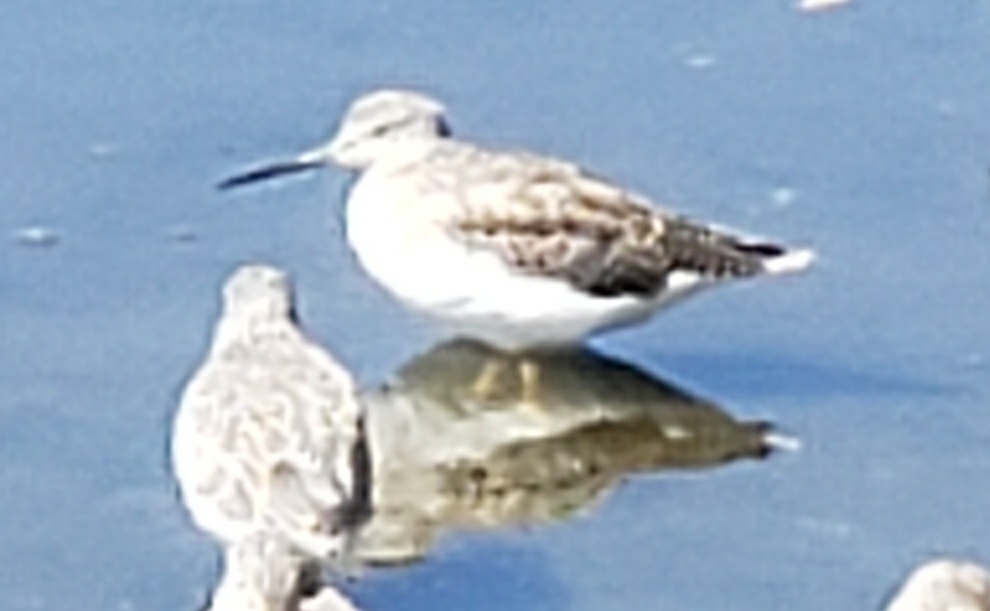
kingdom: Animalia
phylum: Chordata
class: Aves
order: Charadriiformes
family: Scolopacidae
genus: Tringa
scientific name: Tringa melanoleuca
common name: Greater yellowlegs
